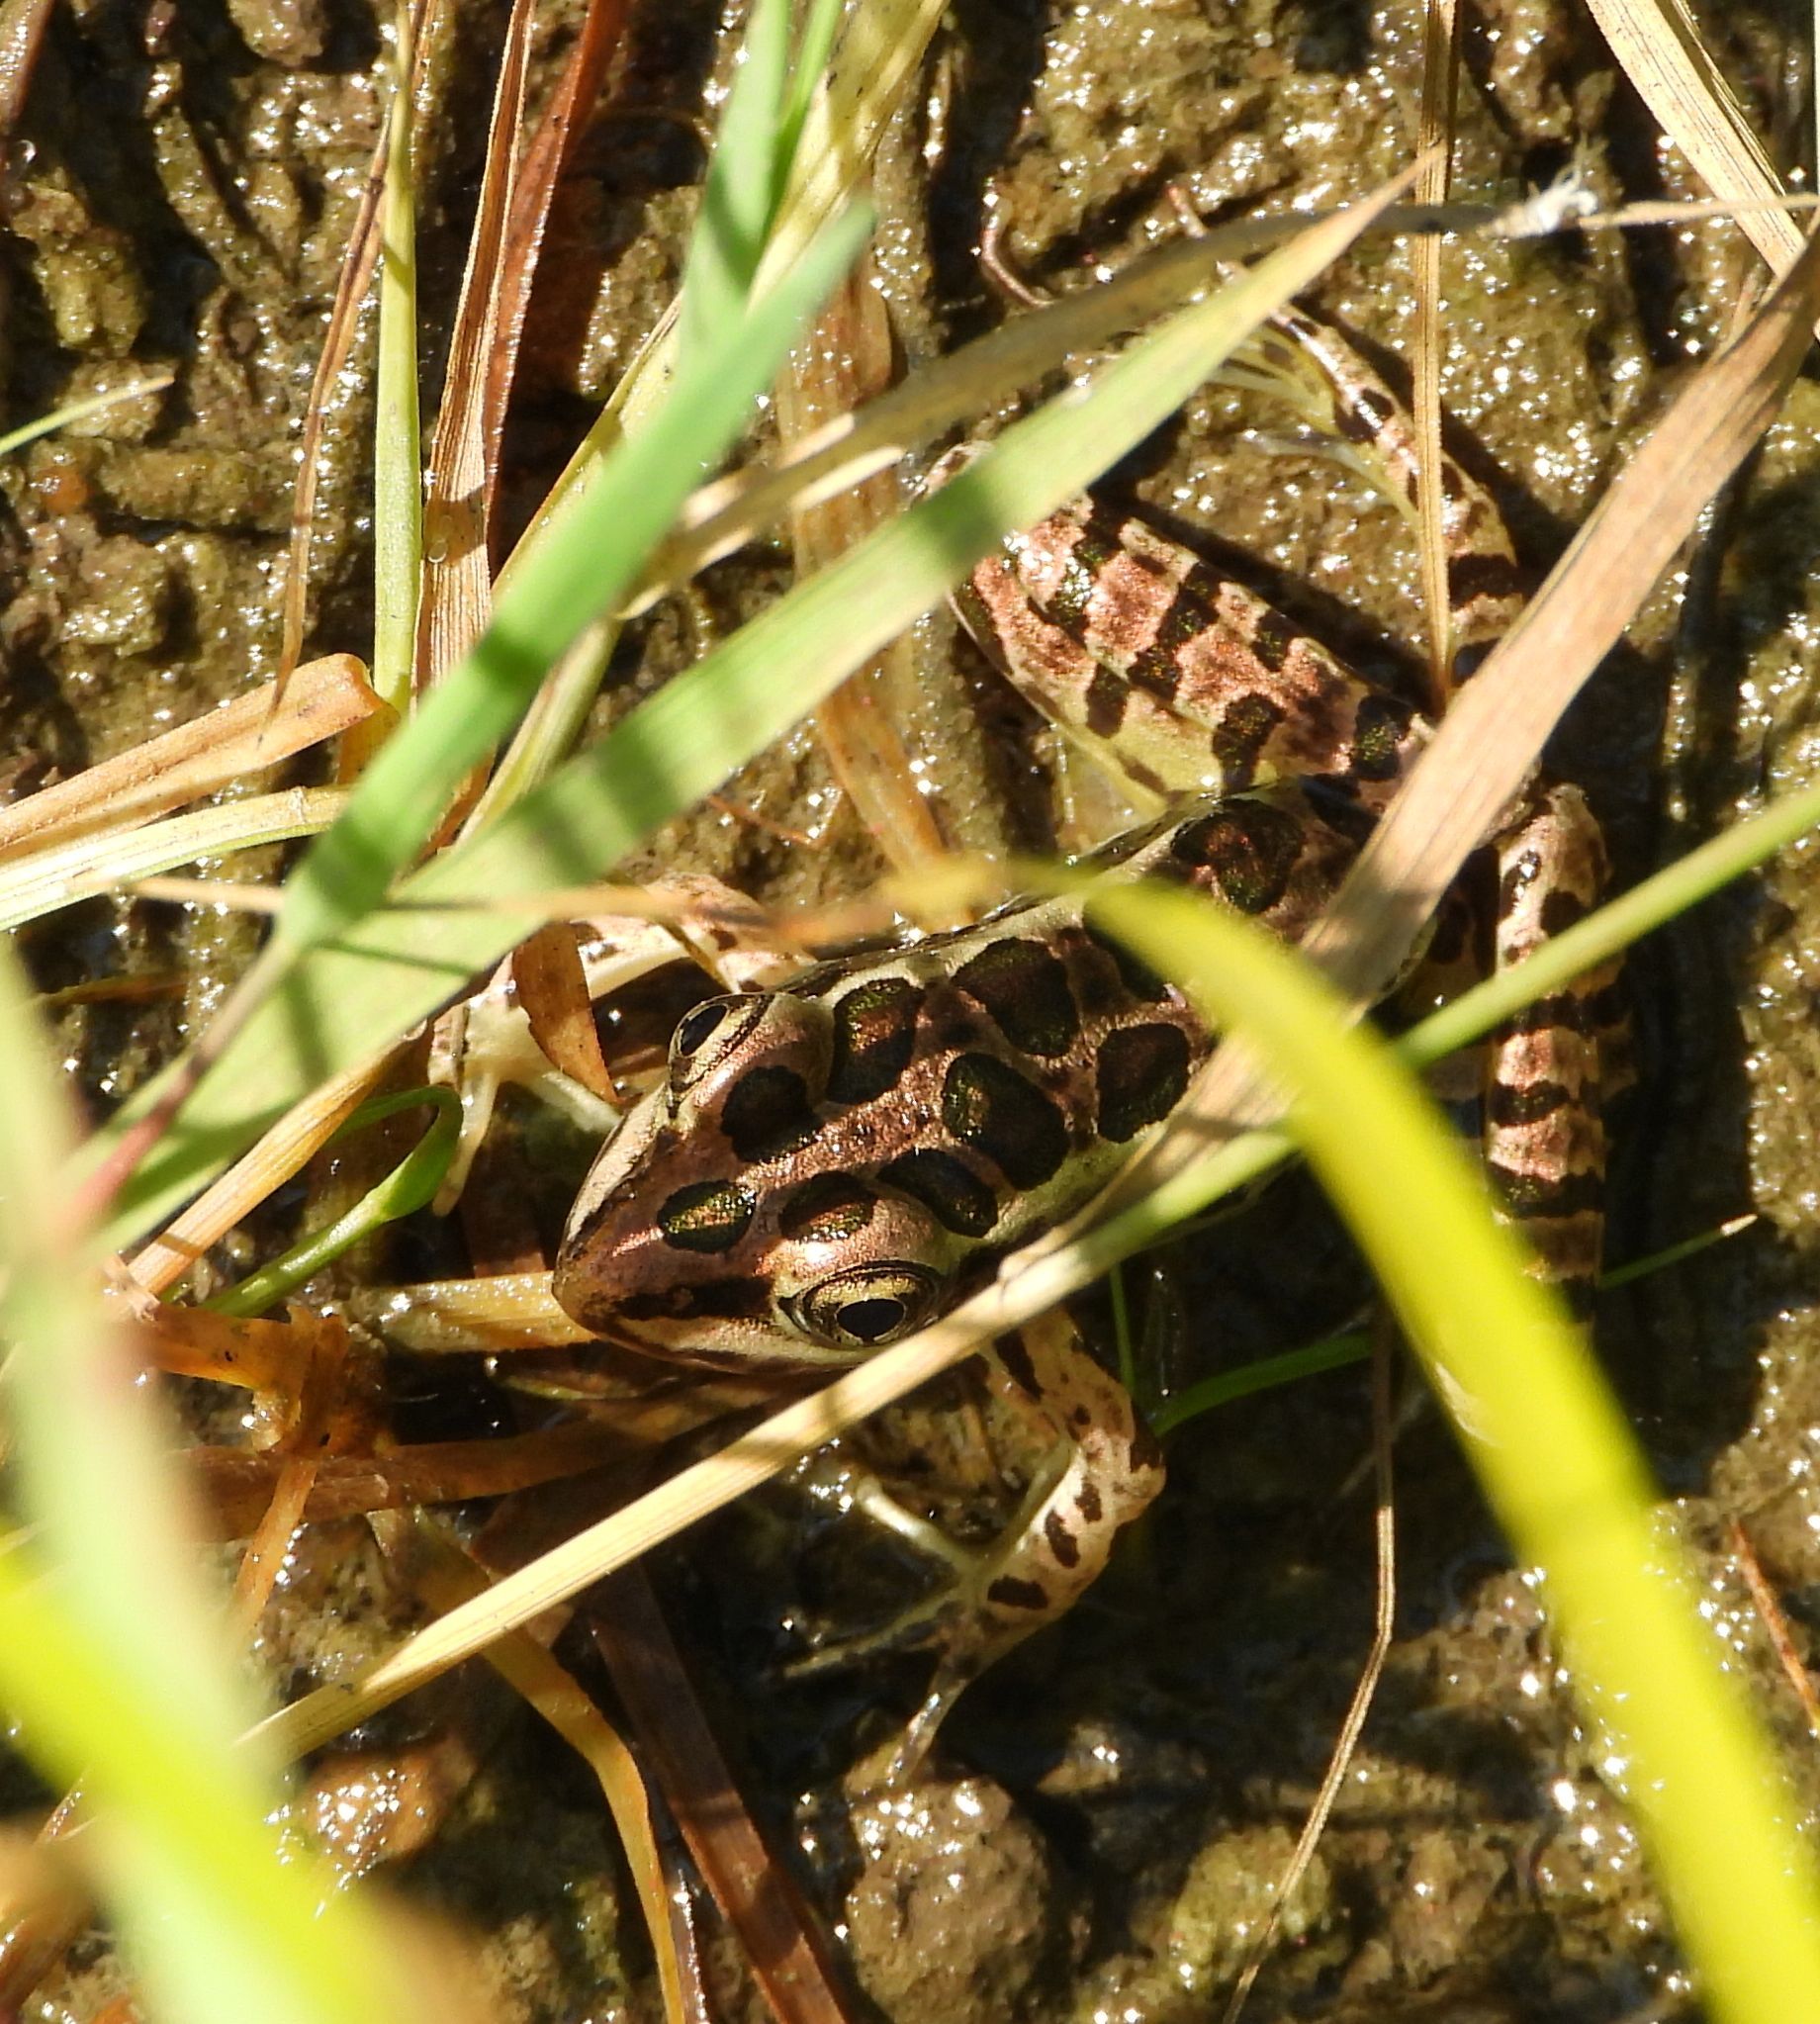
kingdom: Animalia
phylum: Chordata
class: Amphibia
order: Anura
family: Ranidae
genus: Lithobates
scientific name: Lithobates palustris
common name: Pickerel frog
